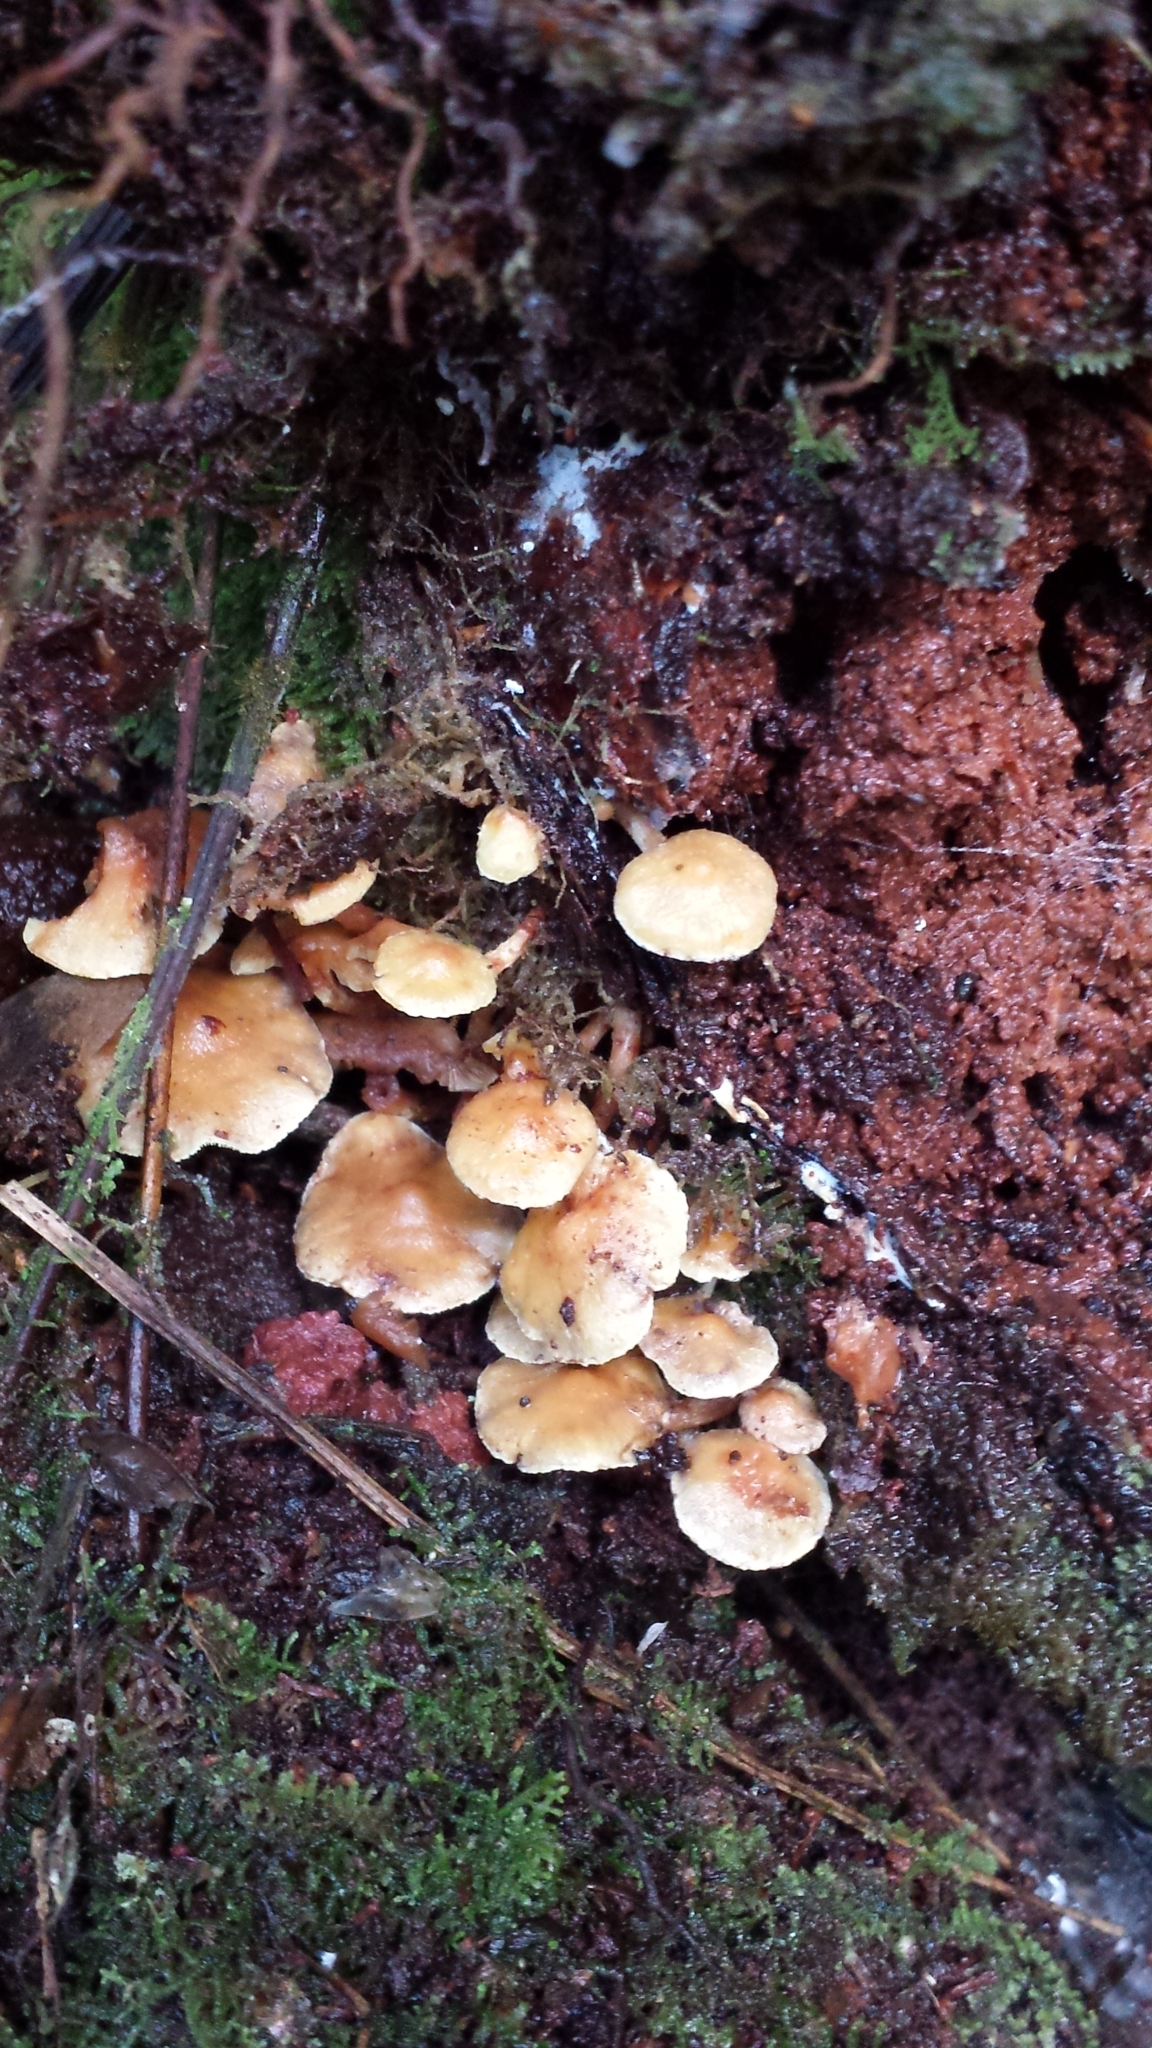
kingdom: Fungi
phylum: Basidiomycota
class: Agaricomycetes
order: Agaricales
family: Strophariaceae
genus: Hypholoma
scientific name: Hypholoma acutum
